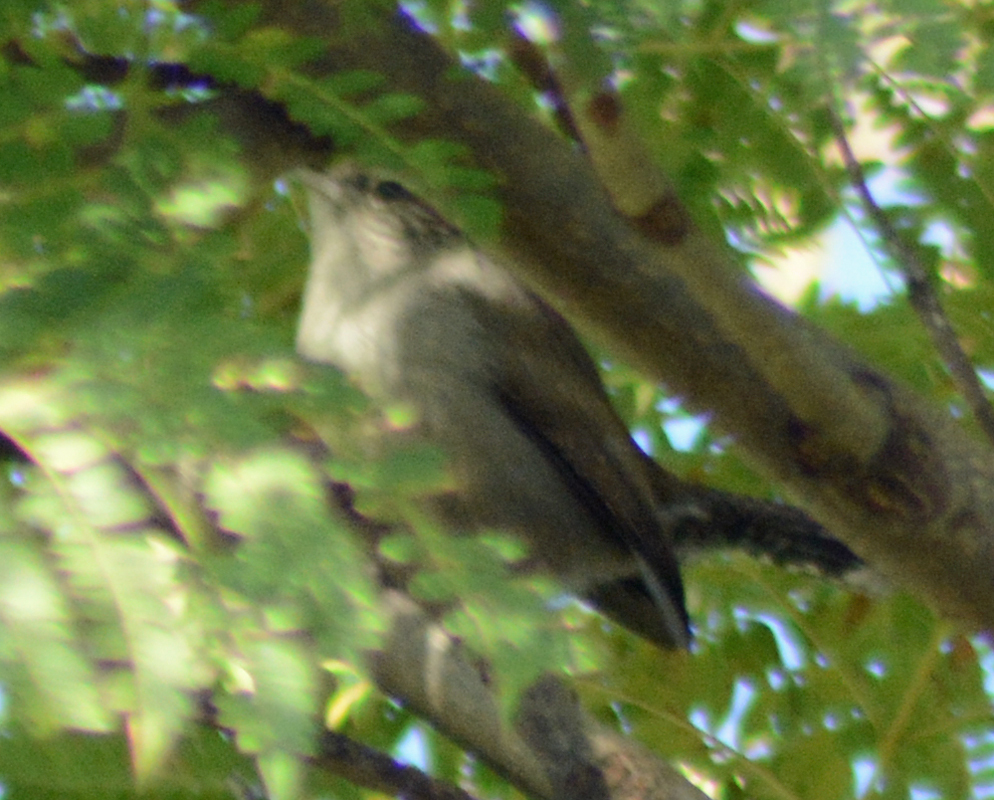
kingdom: Animalia
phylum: Chordata
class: Aves
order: Passeriformes
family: Troglodytidae
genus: Thryomanes
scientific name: Thryomanes bewickii
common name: Bewick's wren
